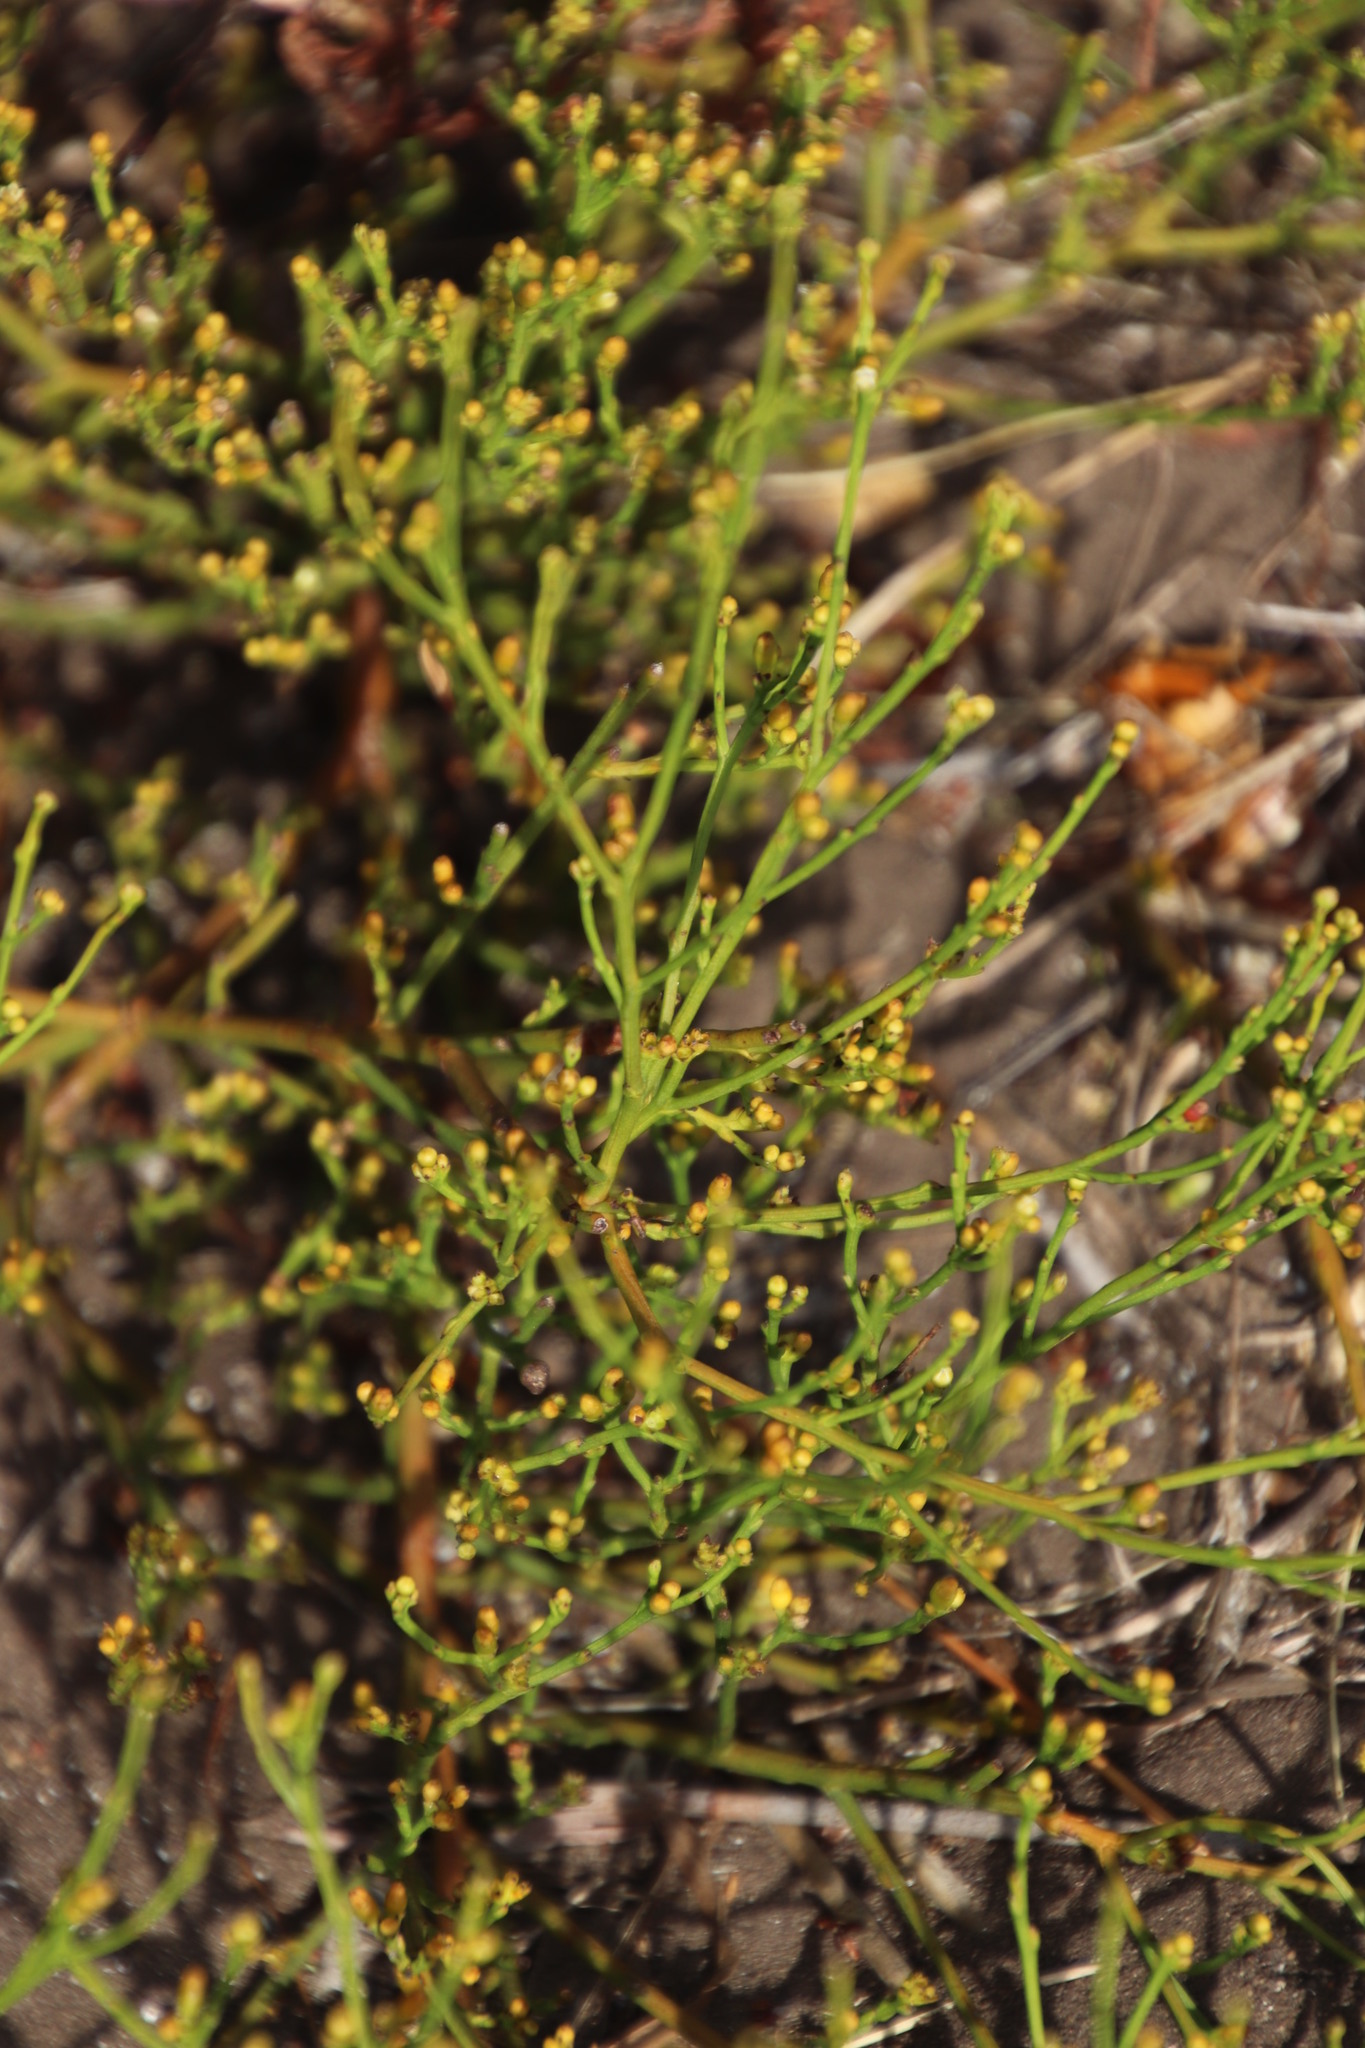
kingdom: Plantae
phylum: Tracheophyta
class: Magnoliopsida
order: Santalales
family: Thesiaceae
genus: Thesium
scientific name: Thesium commutatum
